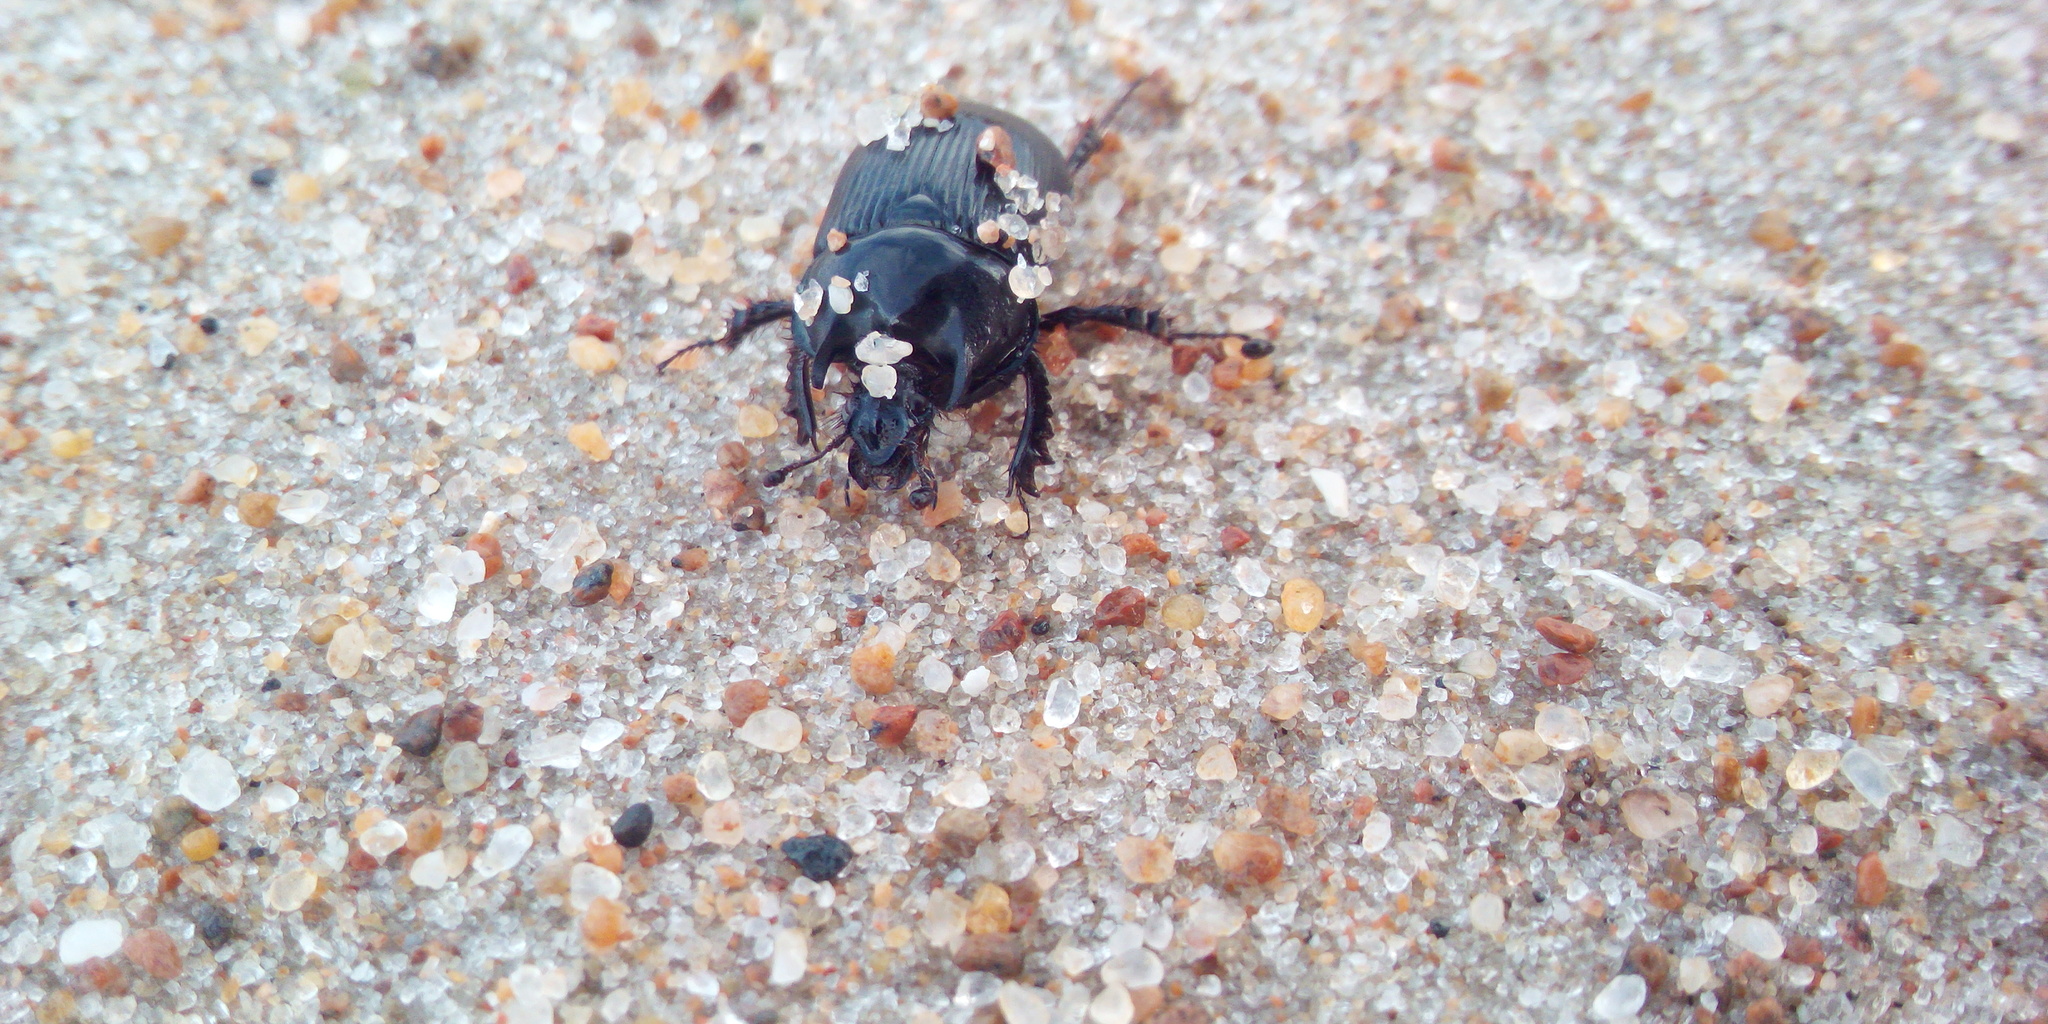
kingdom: Animalia
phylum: Arthropoda
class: Insecta
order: Coleoptera
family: Geotrupidae
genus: Typhaeus
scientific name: Typhaeus typhoeus
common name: Minotaur beetle
